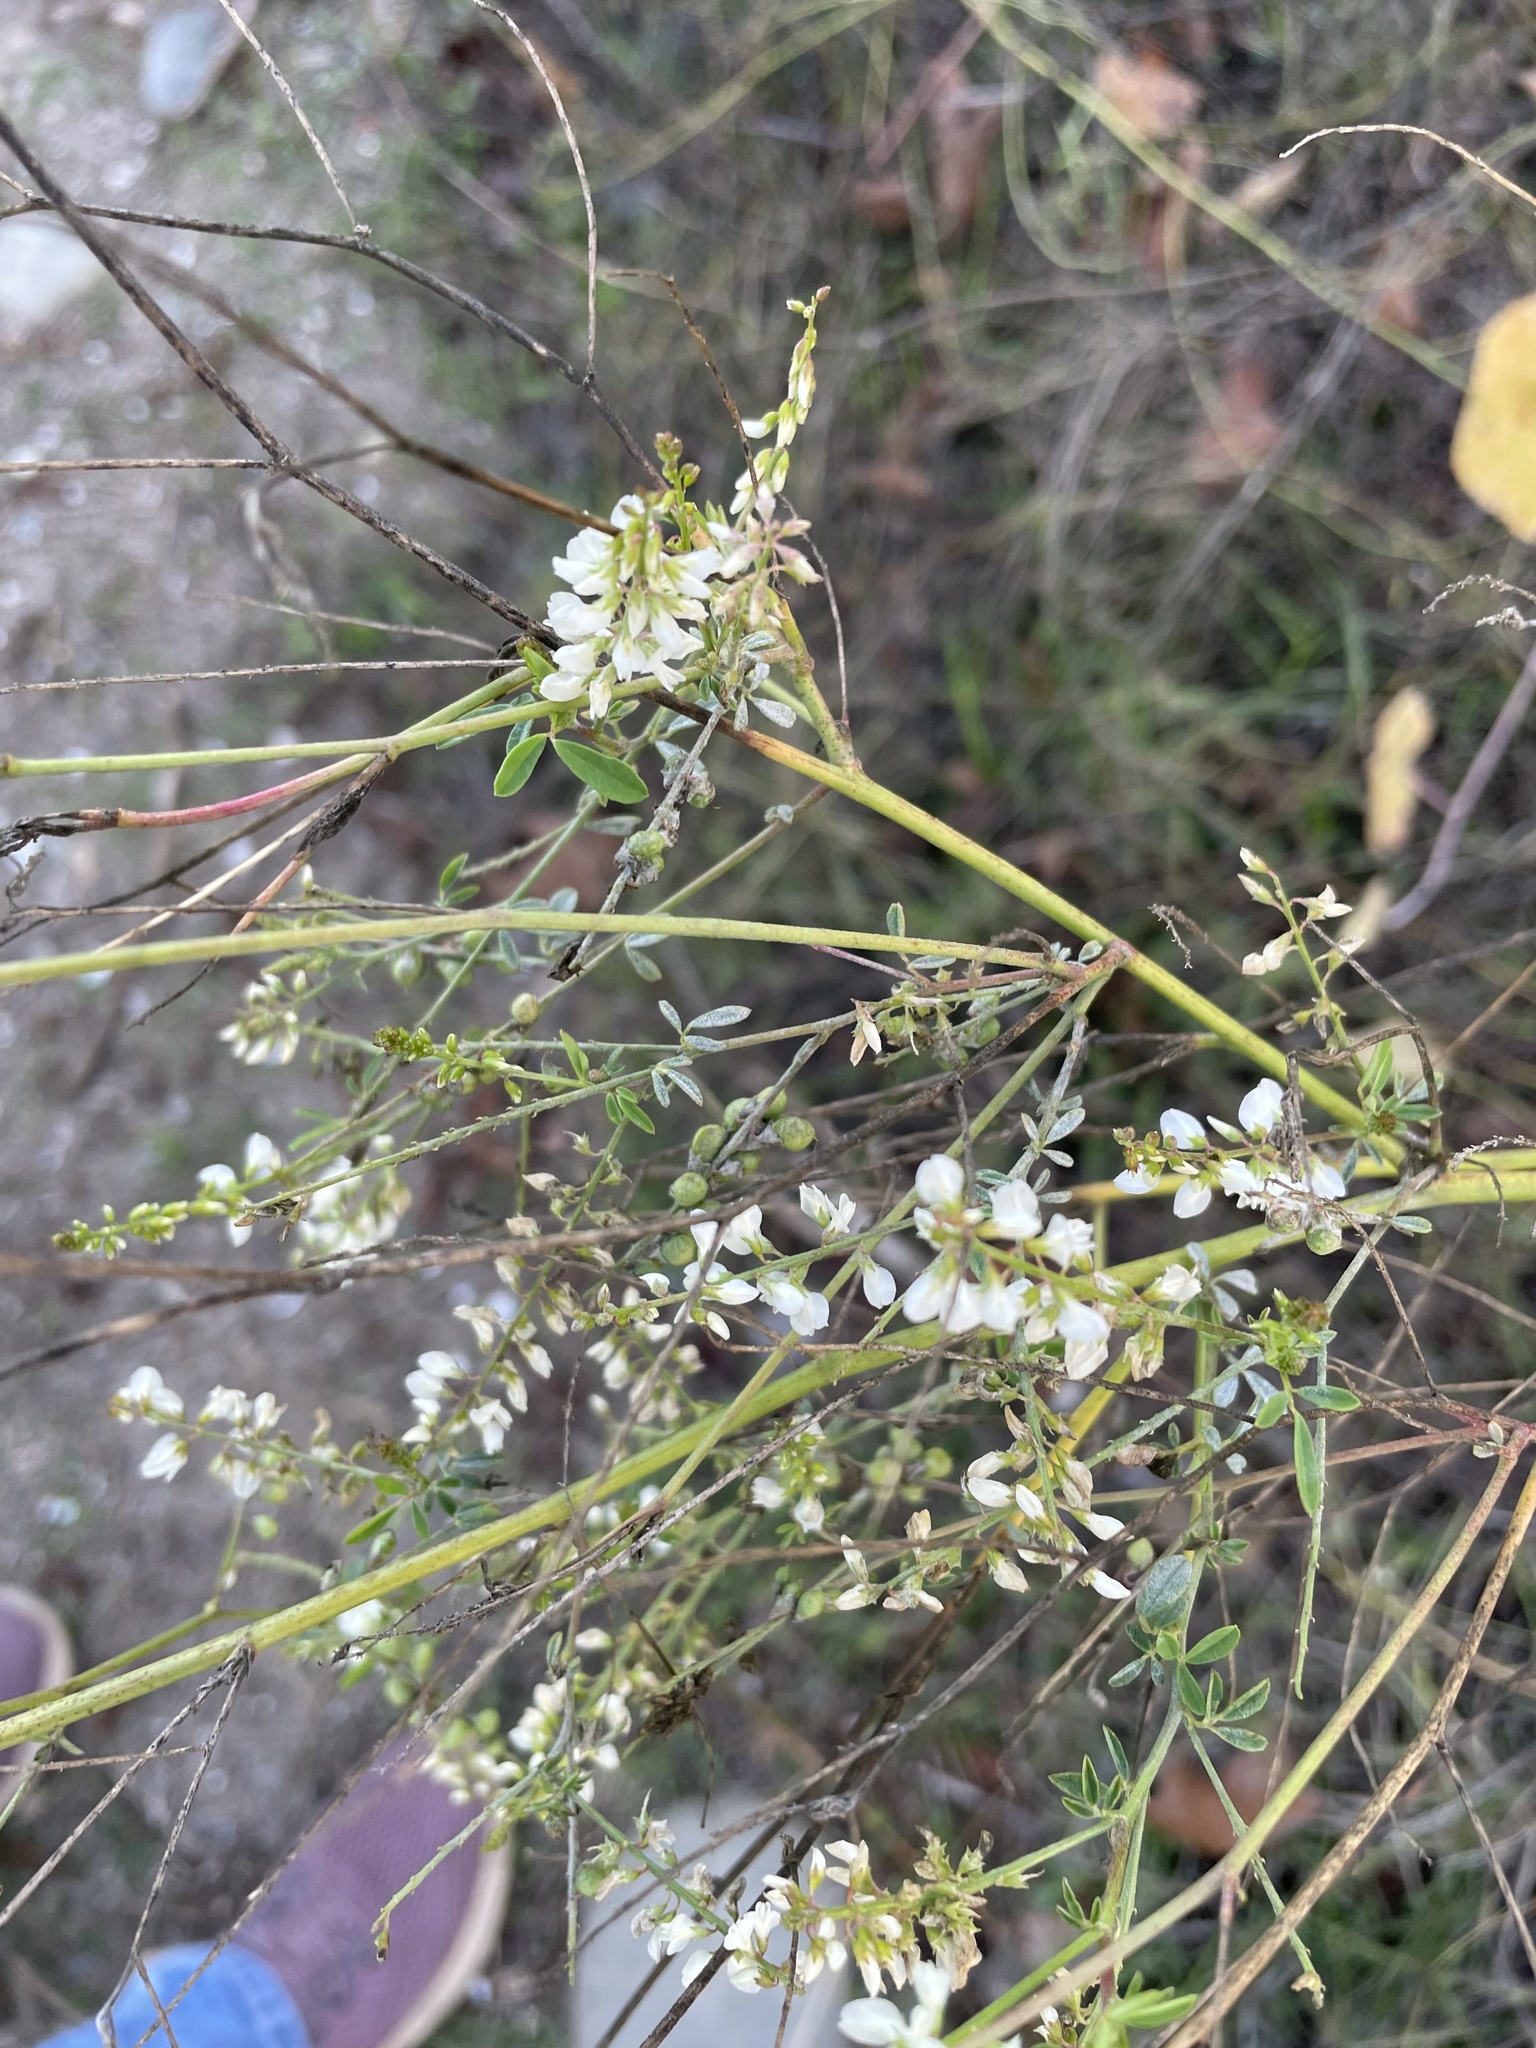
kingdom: Plantae
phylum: Tracheophyta
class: Magnoliopsida
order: Fabales
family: Fabaceae
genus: Melilotus
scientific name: Melilotus albus
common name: White melilot
